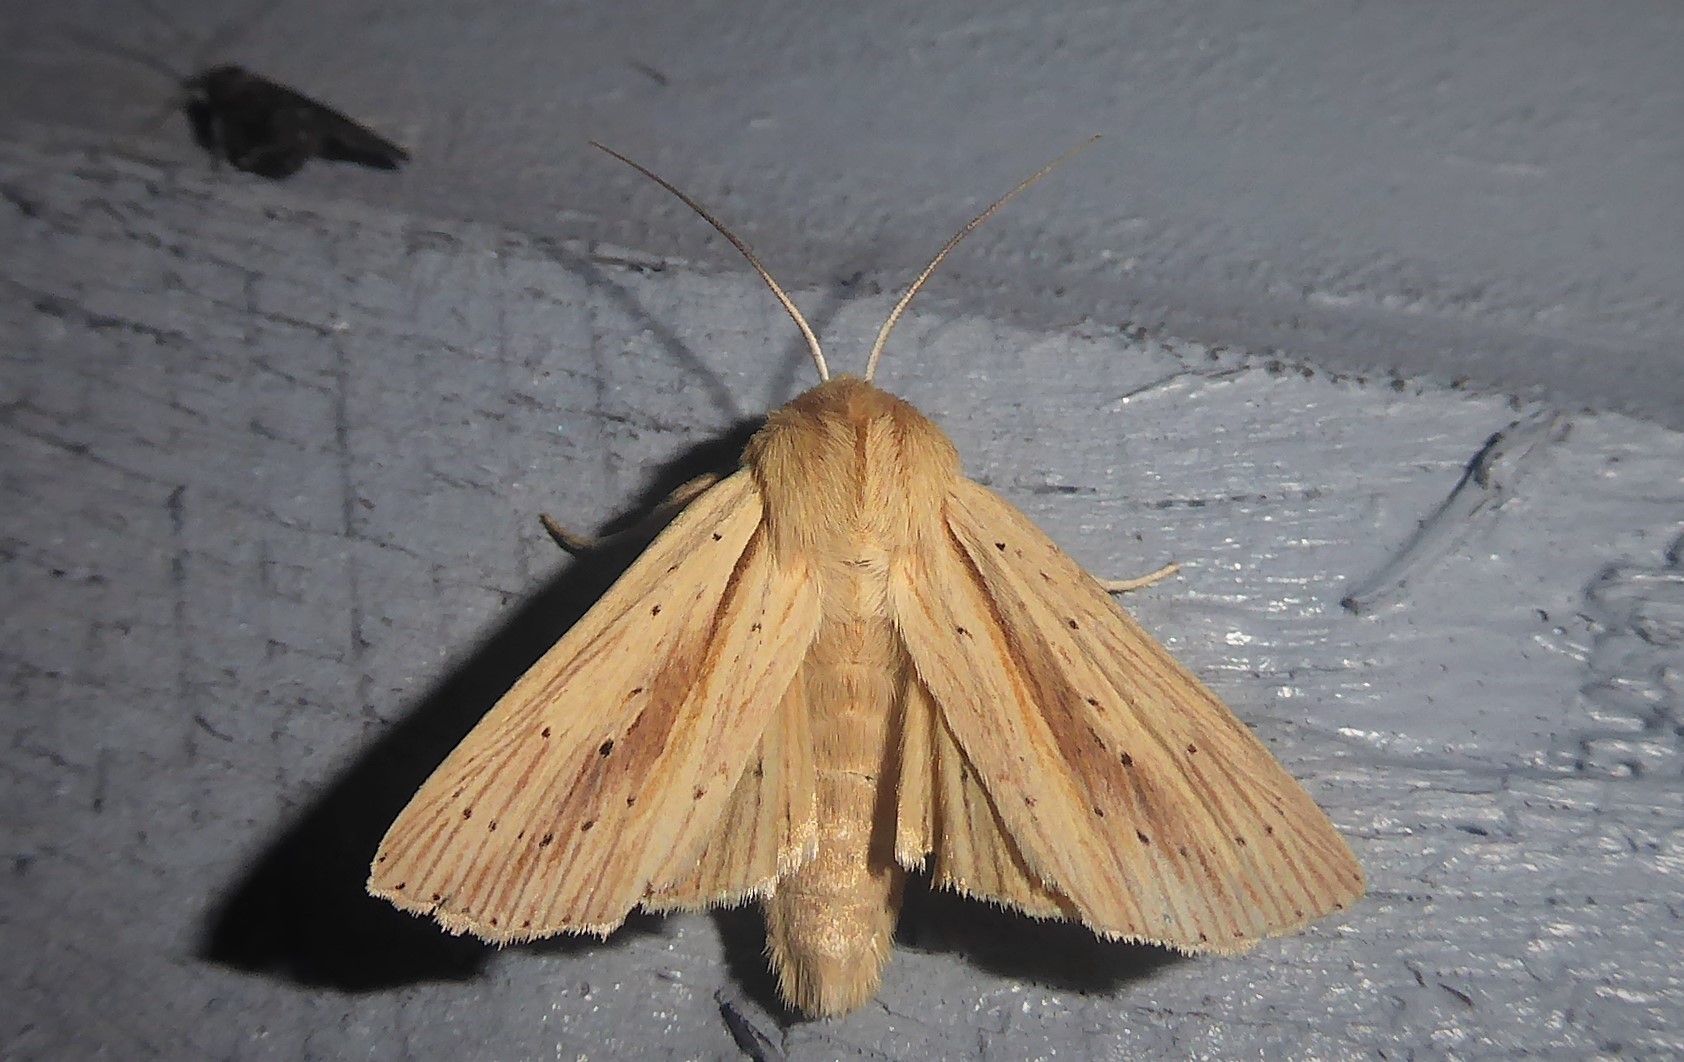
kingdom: Animalia
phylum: Arthropoda
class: Insecta
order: Lepidoptera
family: Noctuidae
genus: Ichneutica
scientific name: Ichneutica semivittata
